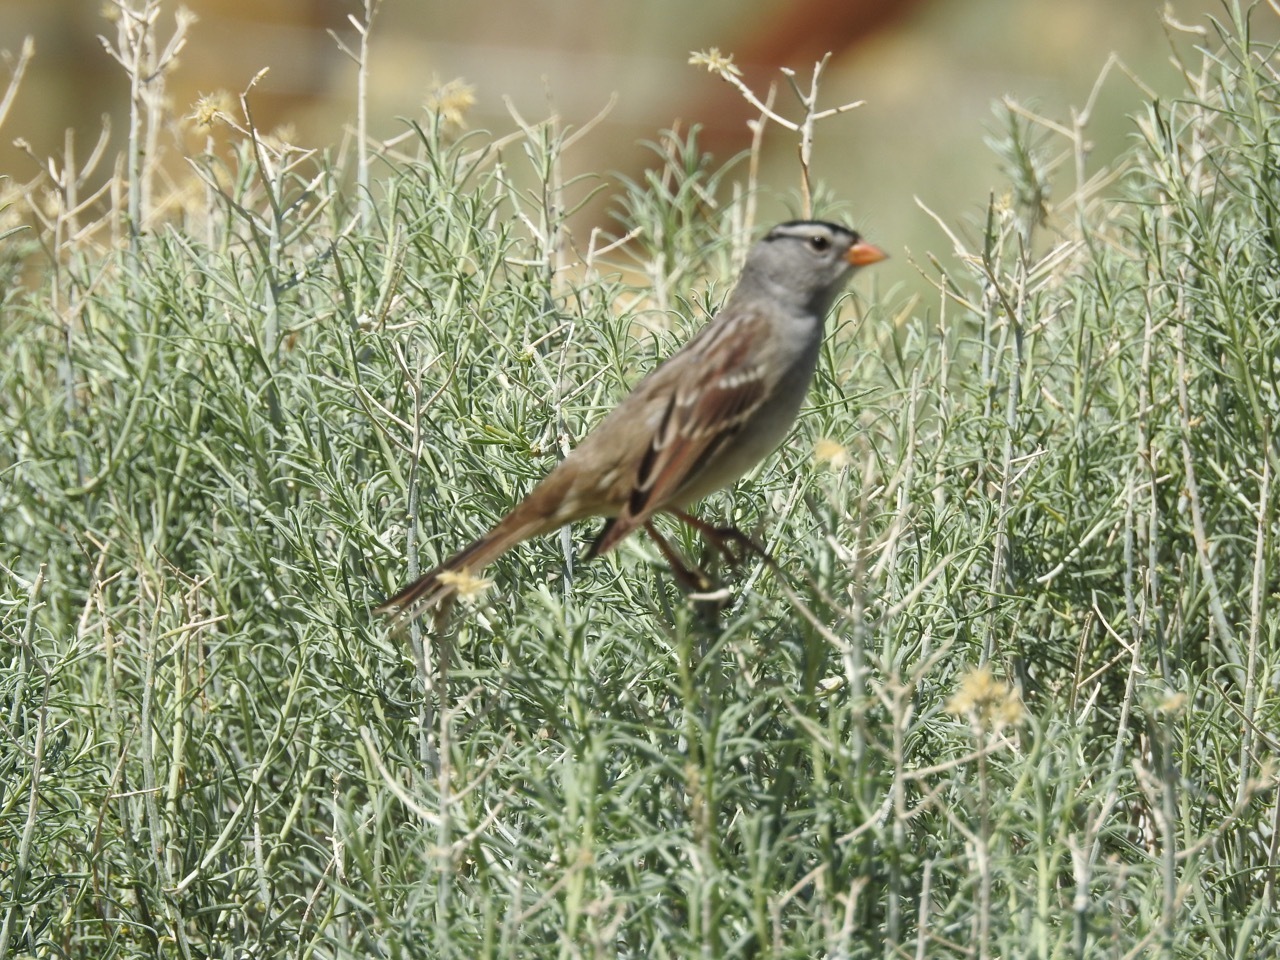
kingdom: Animalia
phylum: Chordata
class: Aves
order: Passeriformes
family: Passerellidae
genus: Zonotrichia
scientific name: Zonotrichia leucophrys
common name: White-crowned sparrow
